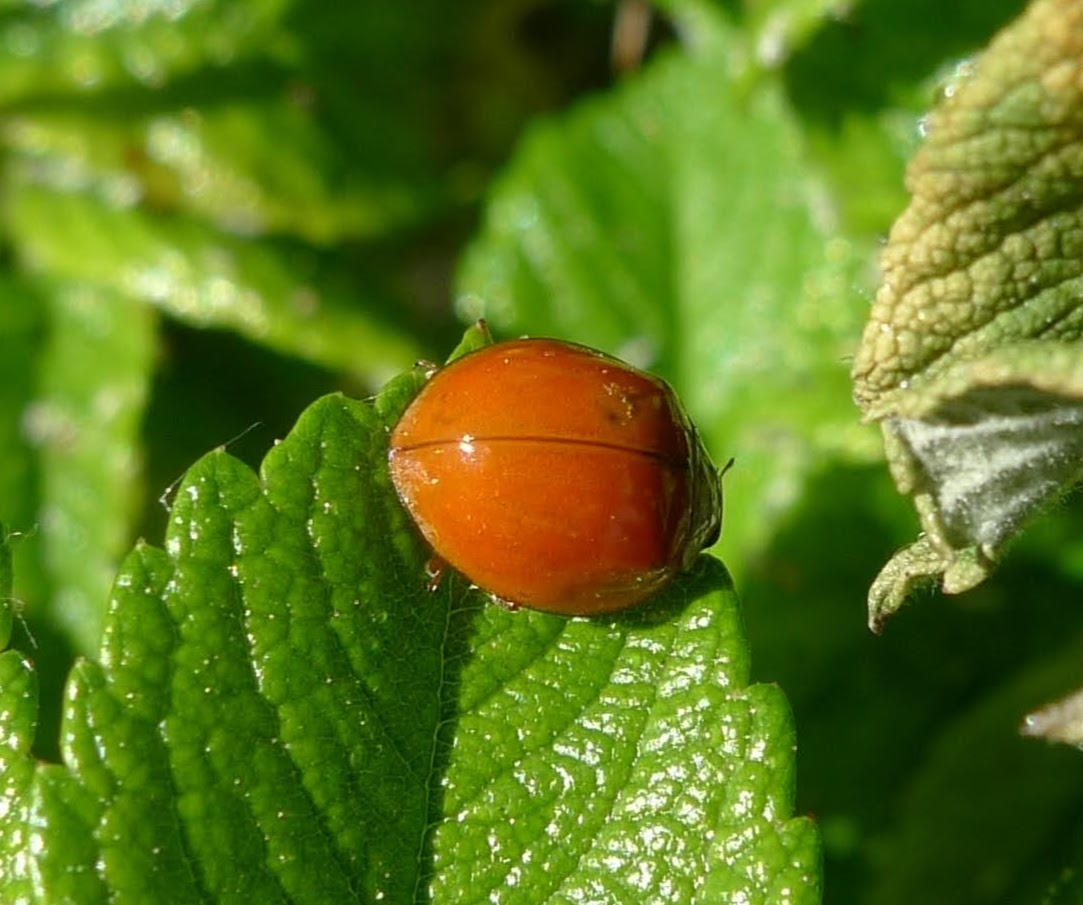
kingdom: Animalia
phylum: Arthropoda
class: Insecta
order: Coleoptera
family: Coccinellidae
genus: Harmonia
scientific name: Harmonia axyridis
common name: Harlequin ladybird
